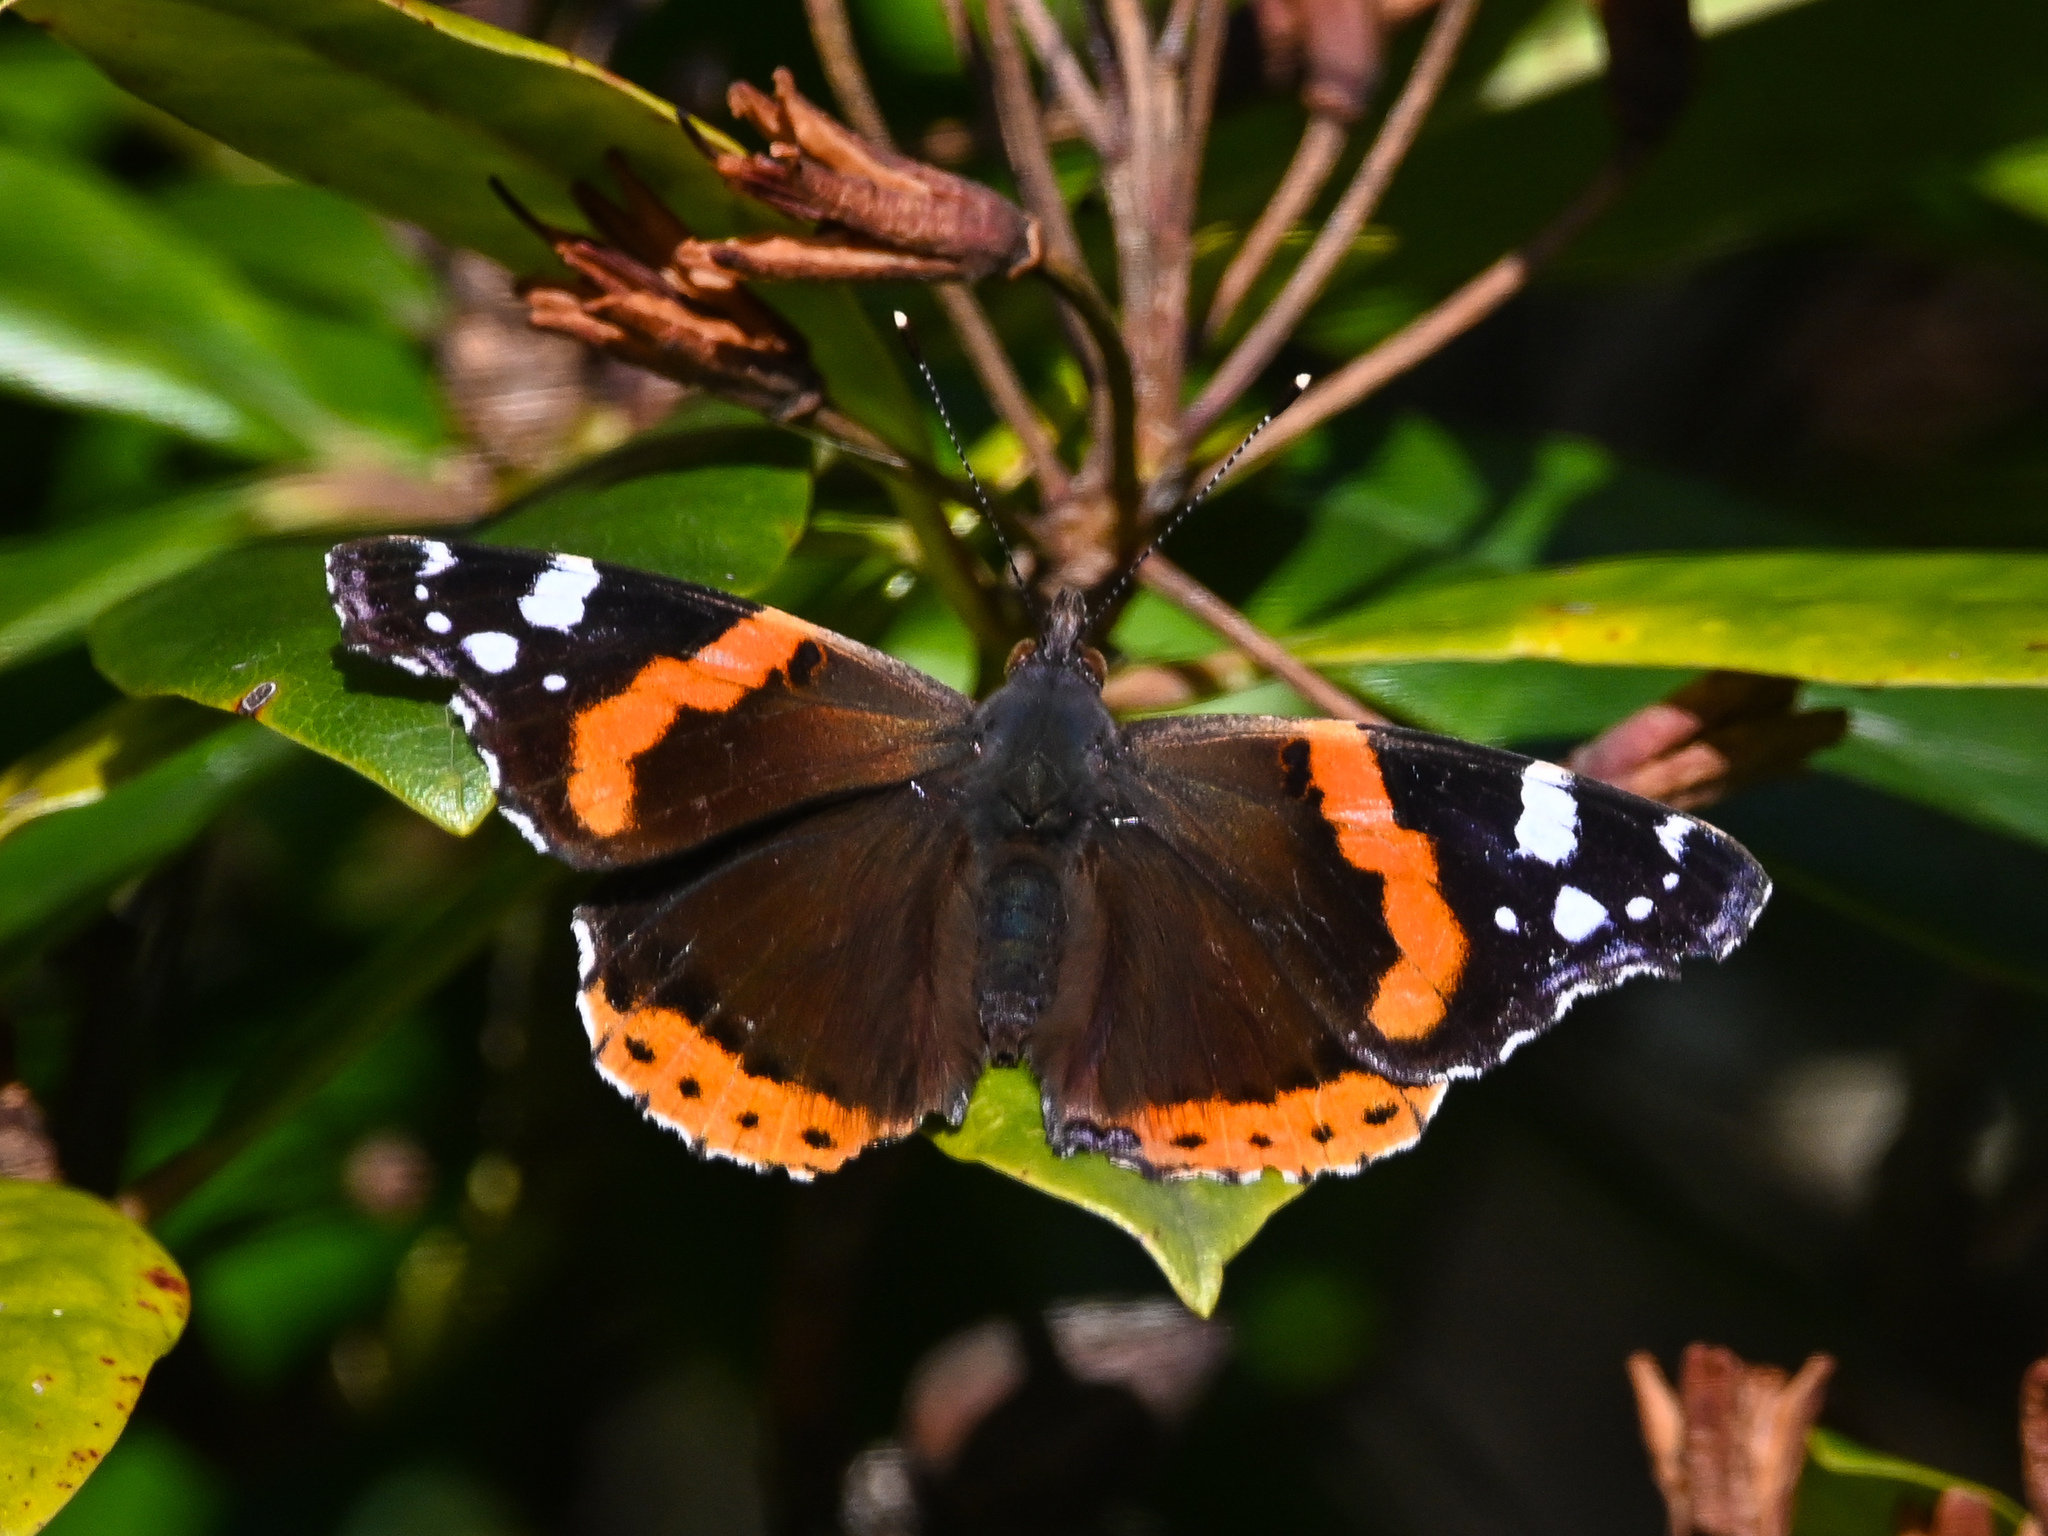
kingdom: Animalia
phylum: Arthropoda
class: Insecta
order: Lepidoptera
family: Nymphalidae
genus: Vanessa
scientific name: Vanessa atalanta
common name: Red admiral
